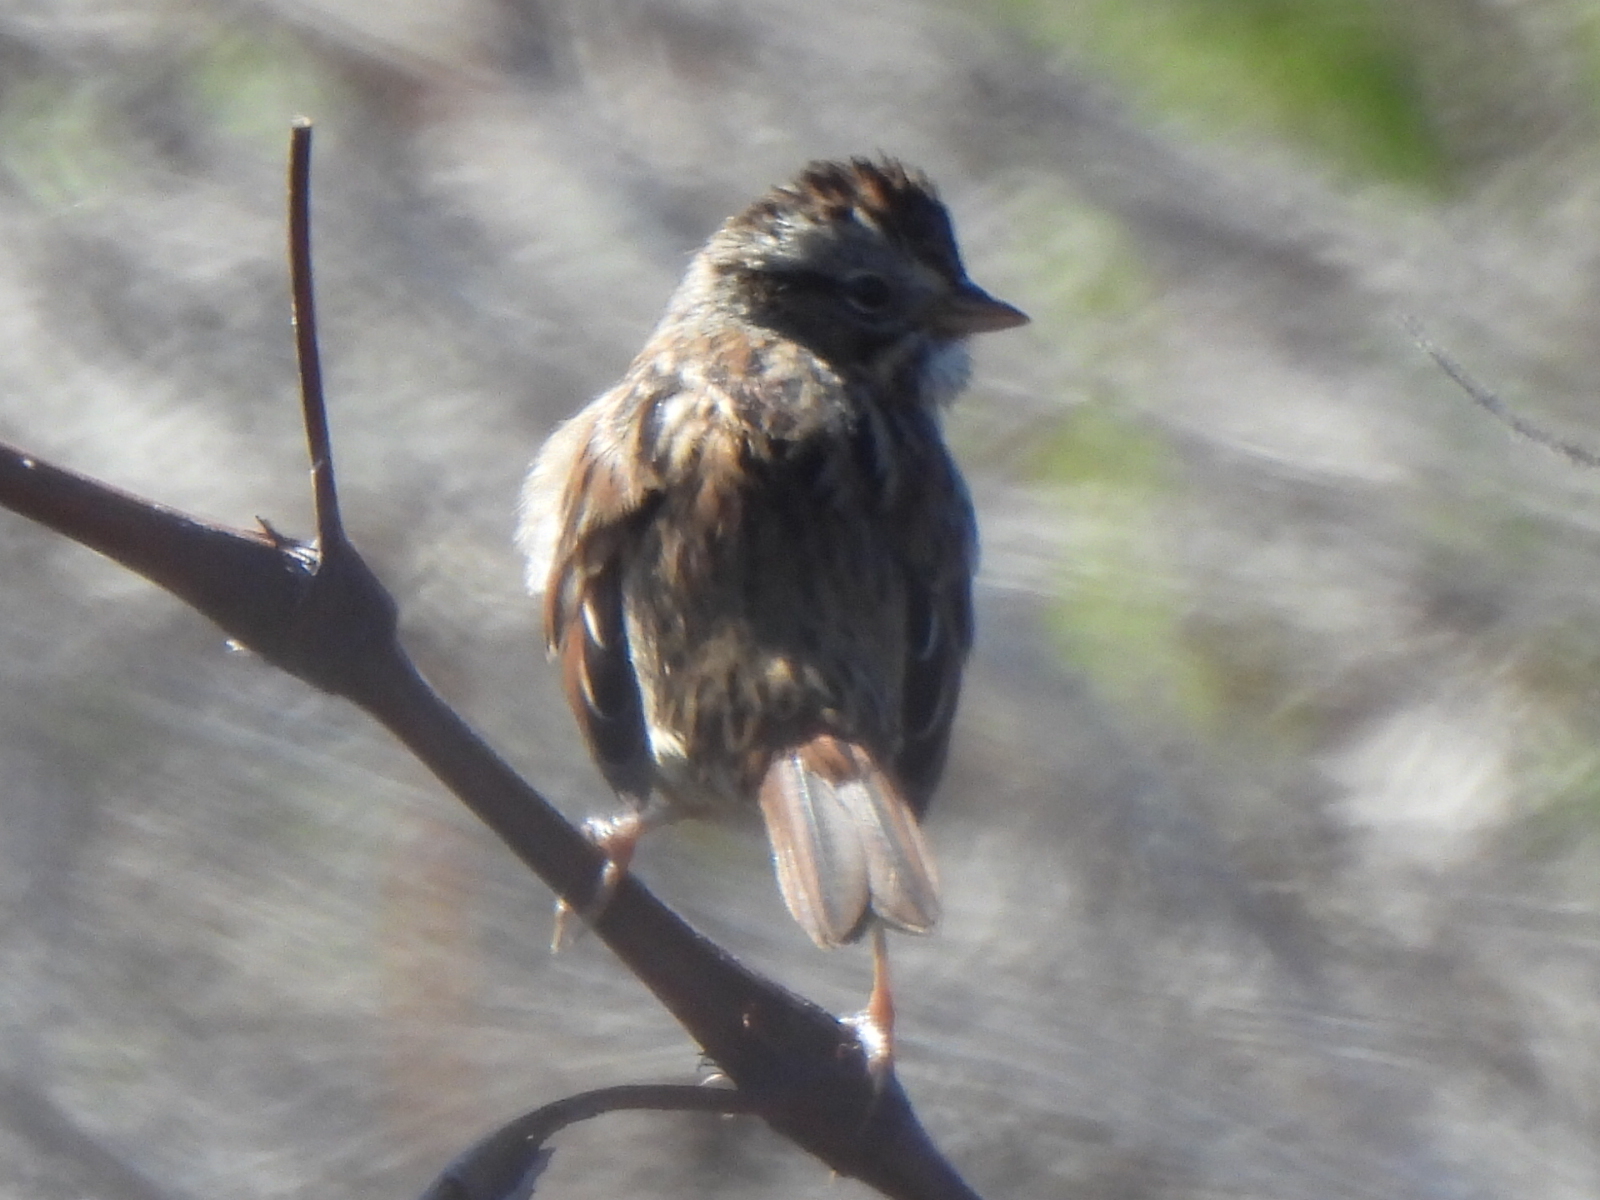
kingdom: Animalia
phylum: Chordata
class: Aves
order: Passeriformes
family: Passerellidae
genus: Melospiza
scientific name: Melospiza georgiana
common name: Swamp sparrow
